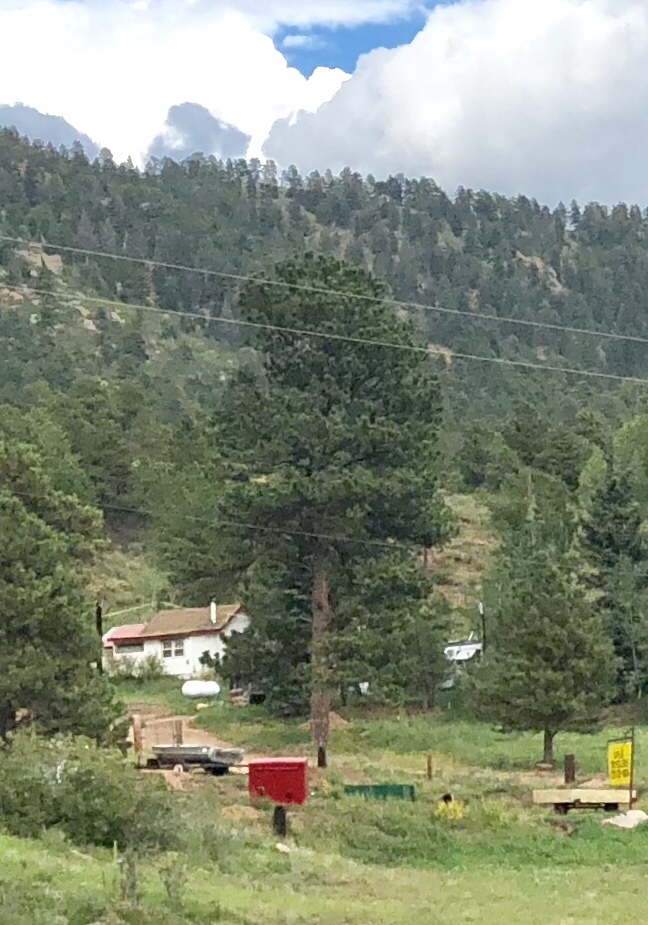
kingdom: Plantae
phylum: Tracheophyta
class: Pinopsida
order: Pinales
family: Pinaceae
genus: Pinus
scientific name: Pinus ponderosa
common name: Western yellow-pine
